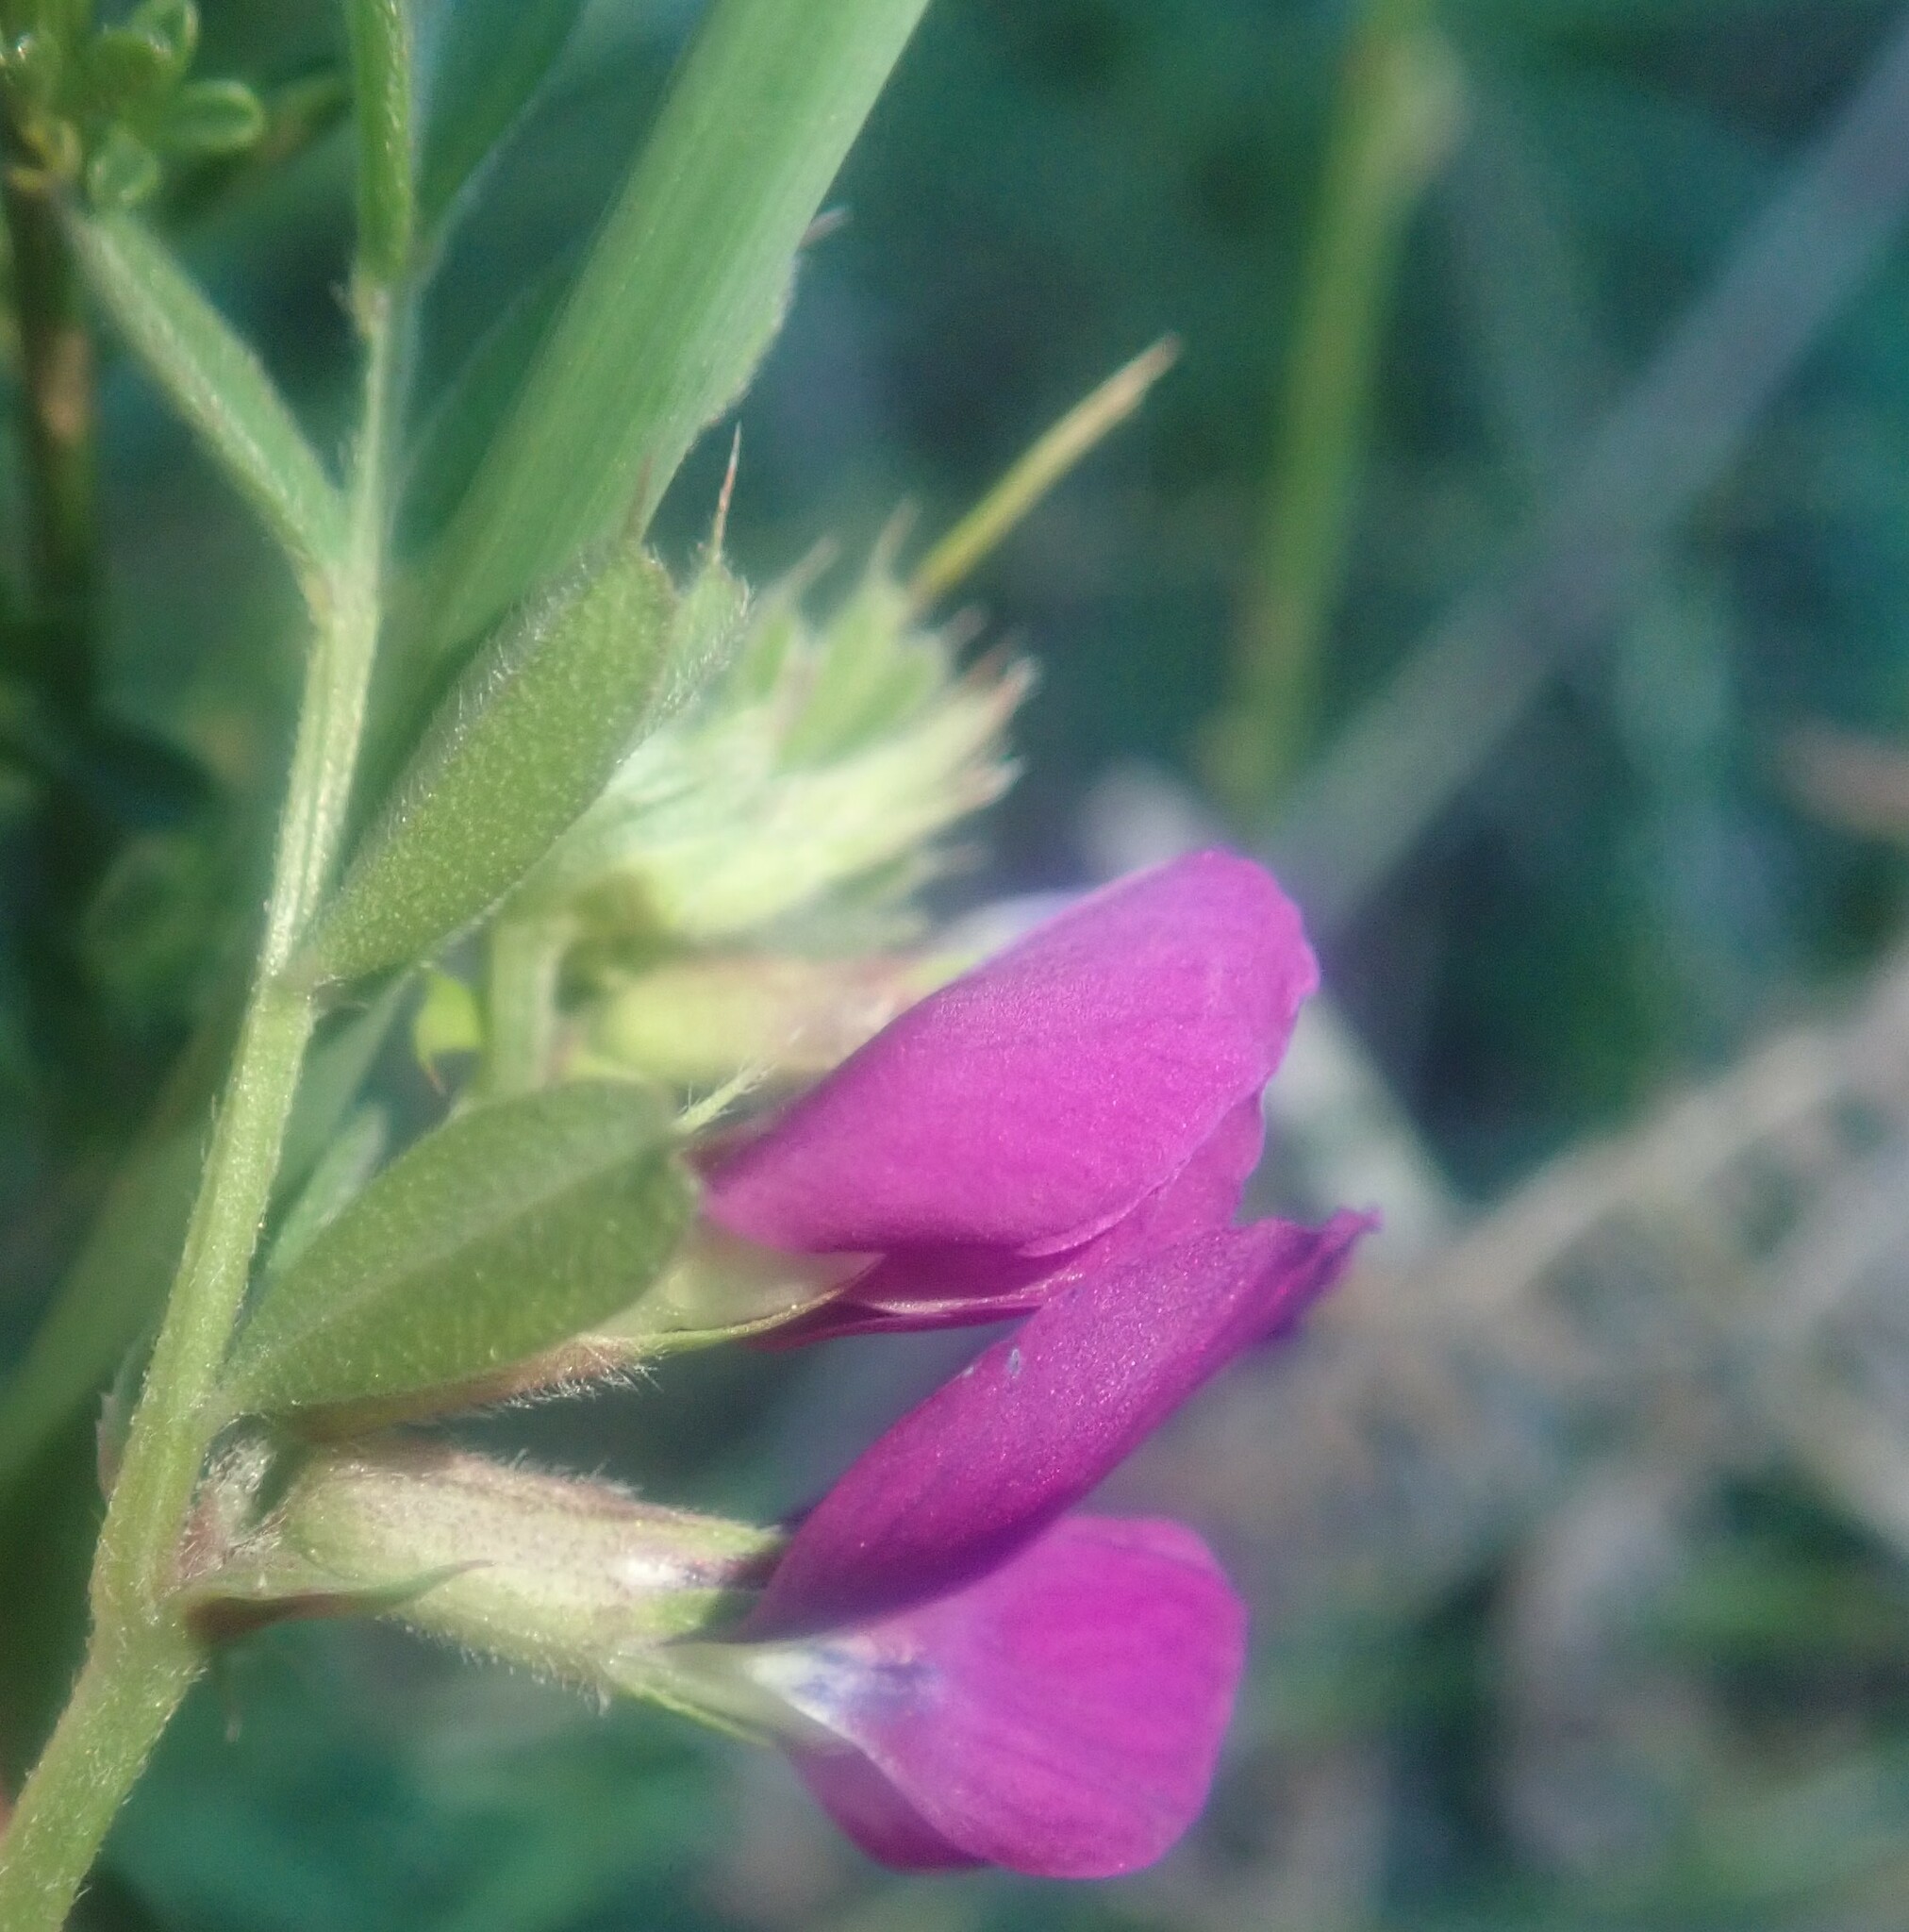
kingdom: Plantae
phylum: Tracheophyta
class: Magnoliopsida
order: Fabales
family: Fabaceae
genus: Vicia
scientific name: Vicia sativa
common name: Garden vetch
